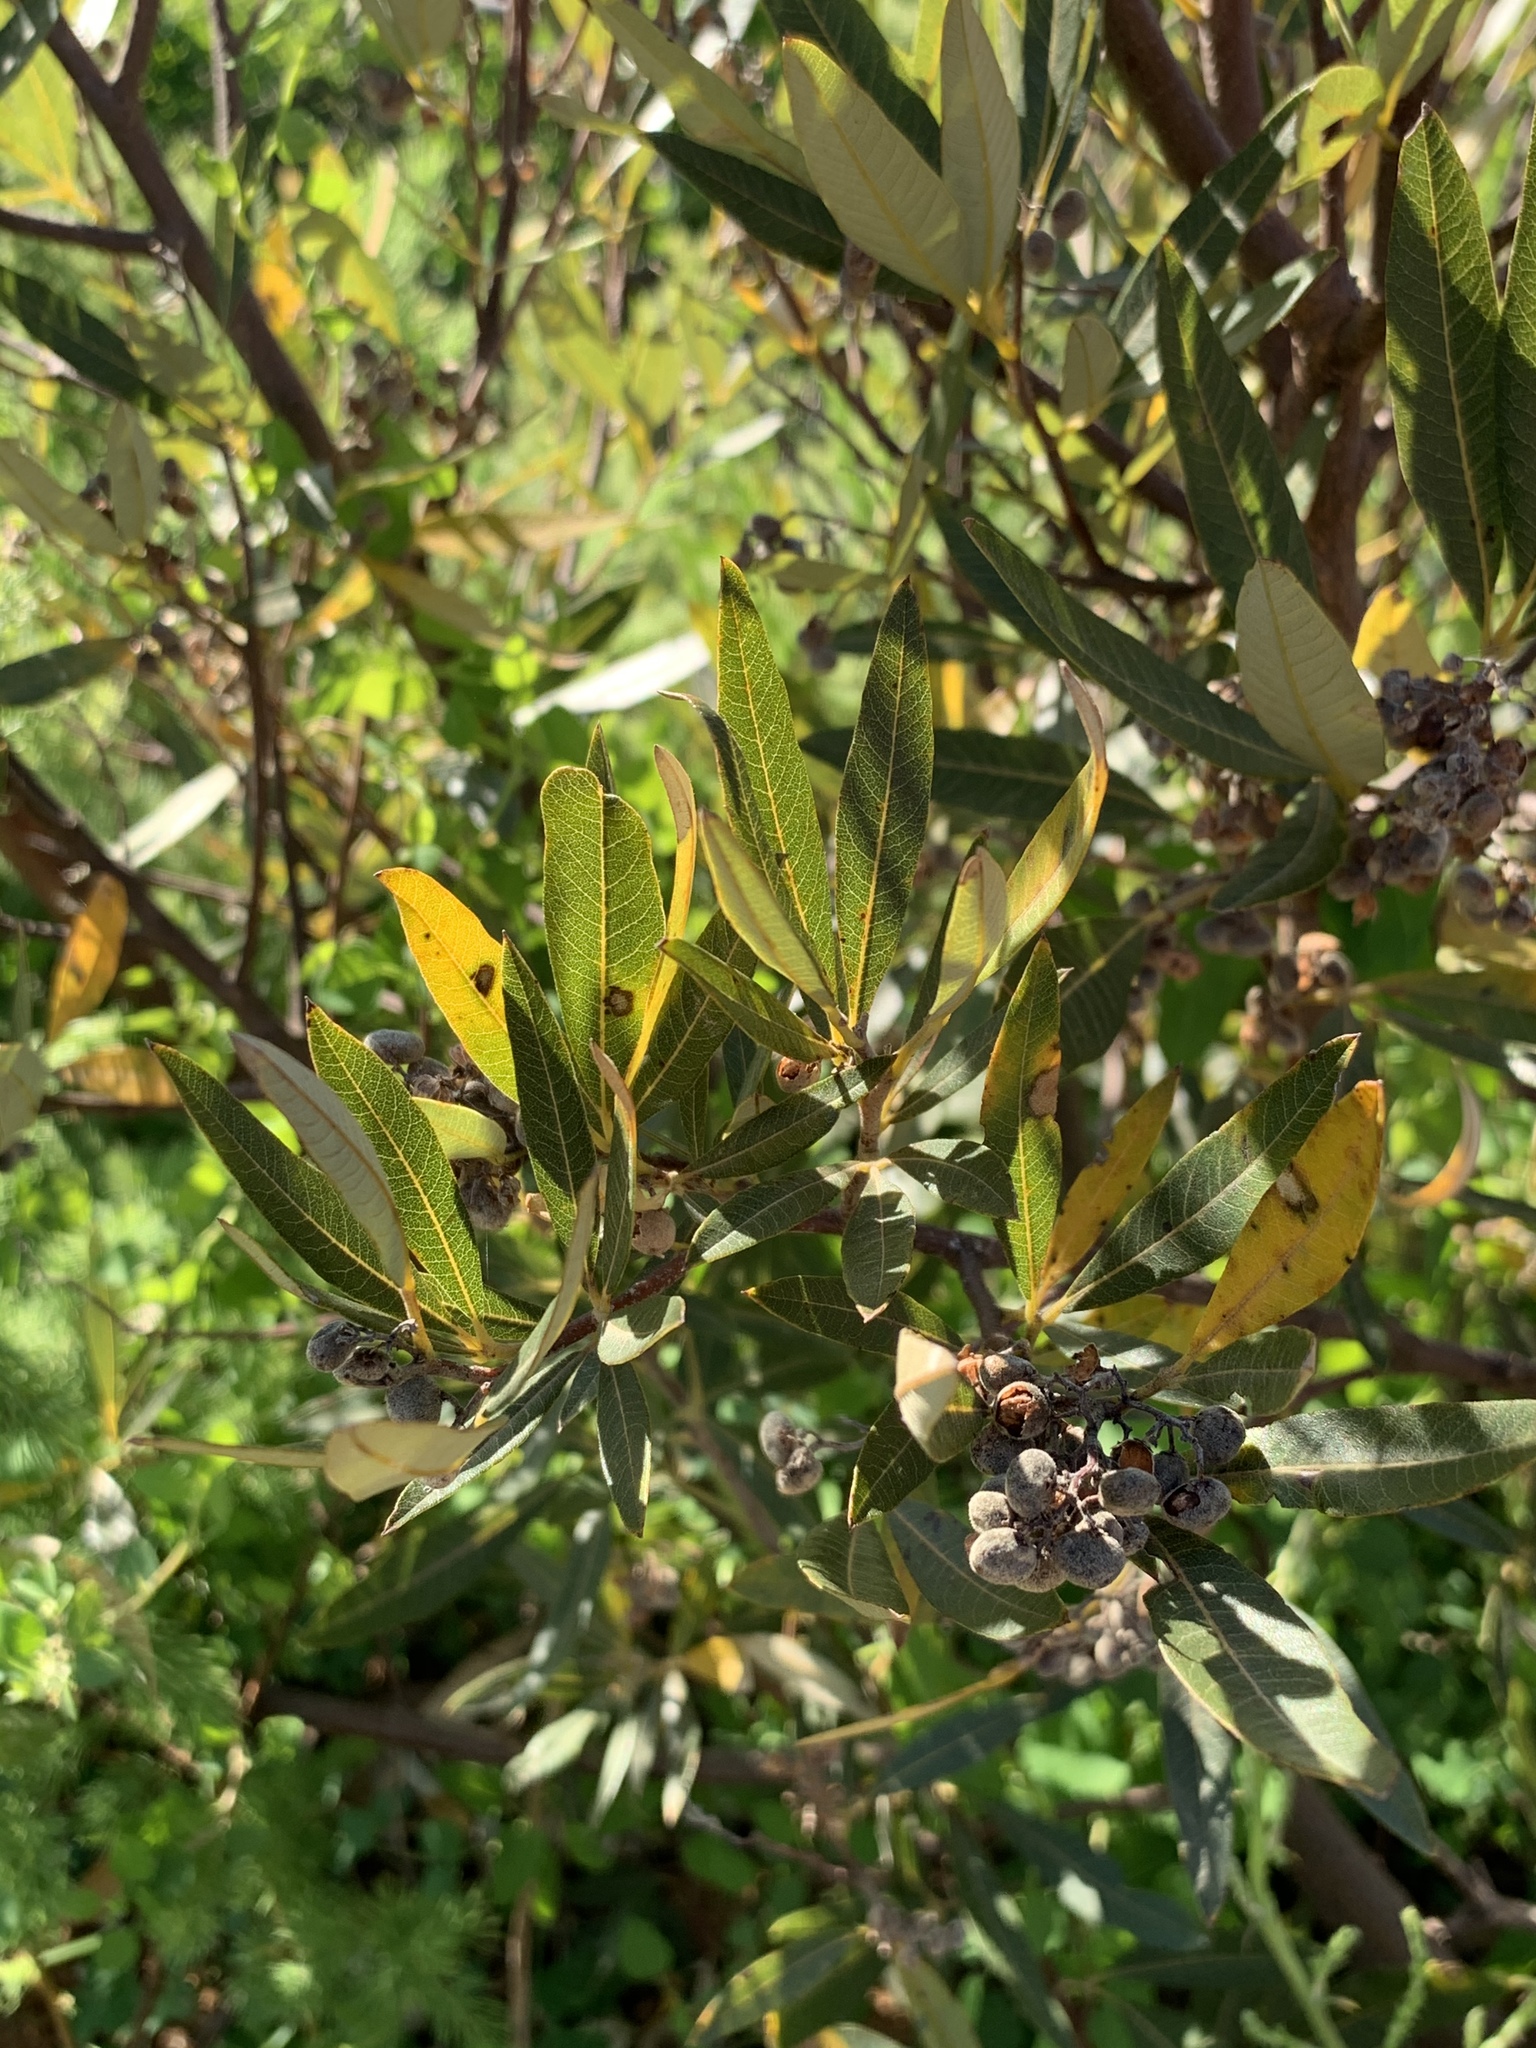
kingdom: Plantae
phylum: Tracheophyta
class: Magnoliopsida
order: Sapindales
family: Anacardiaceae
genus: Searsia
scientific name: Searsia angustifolia
